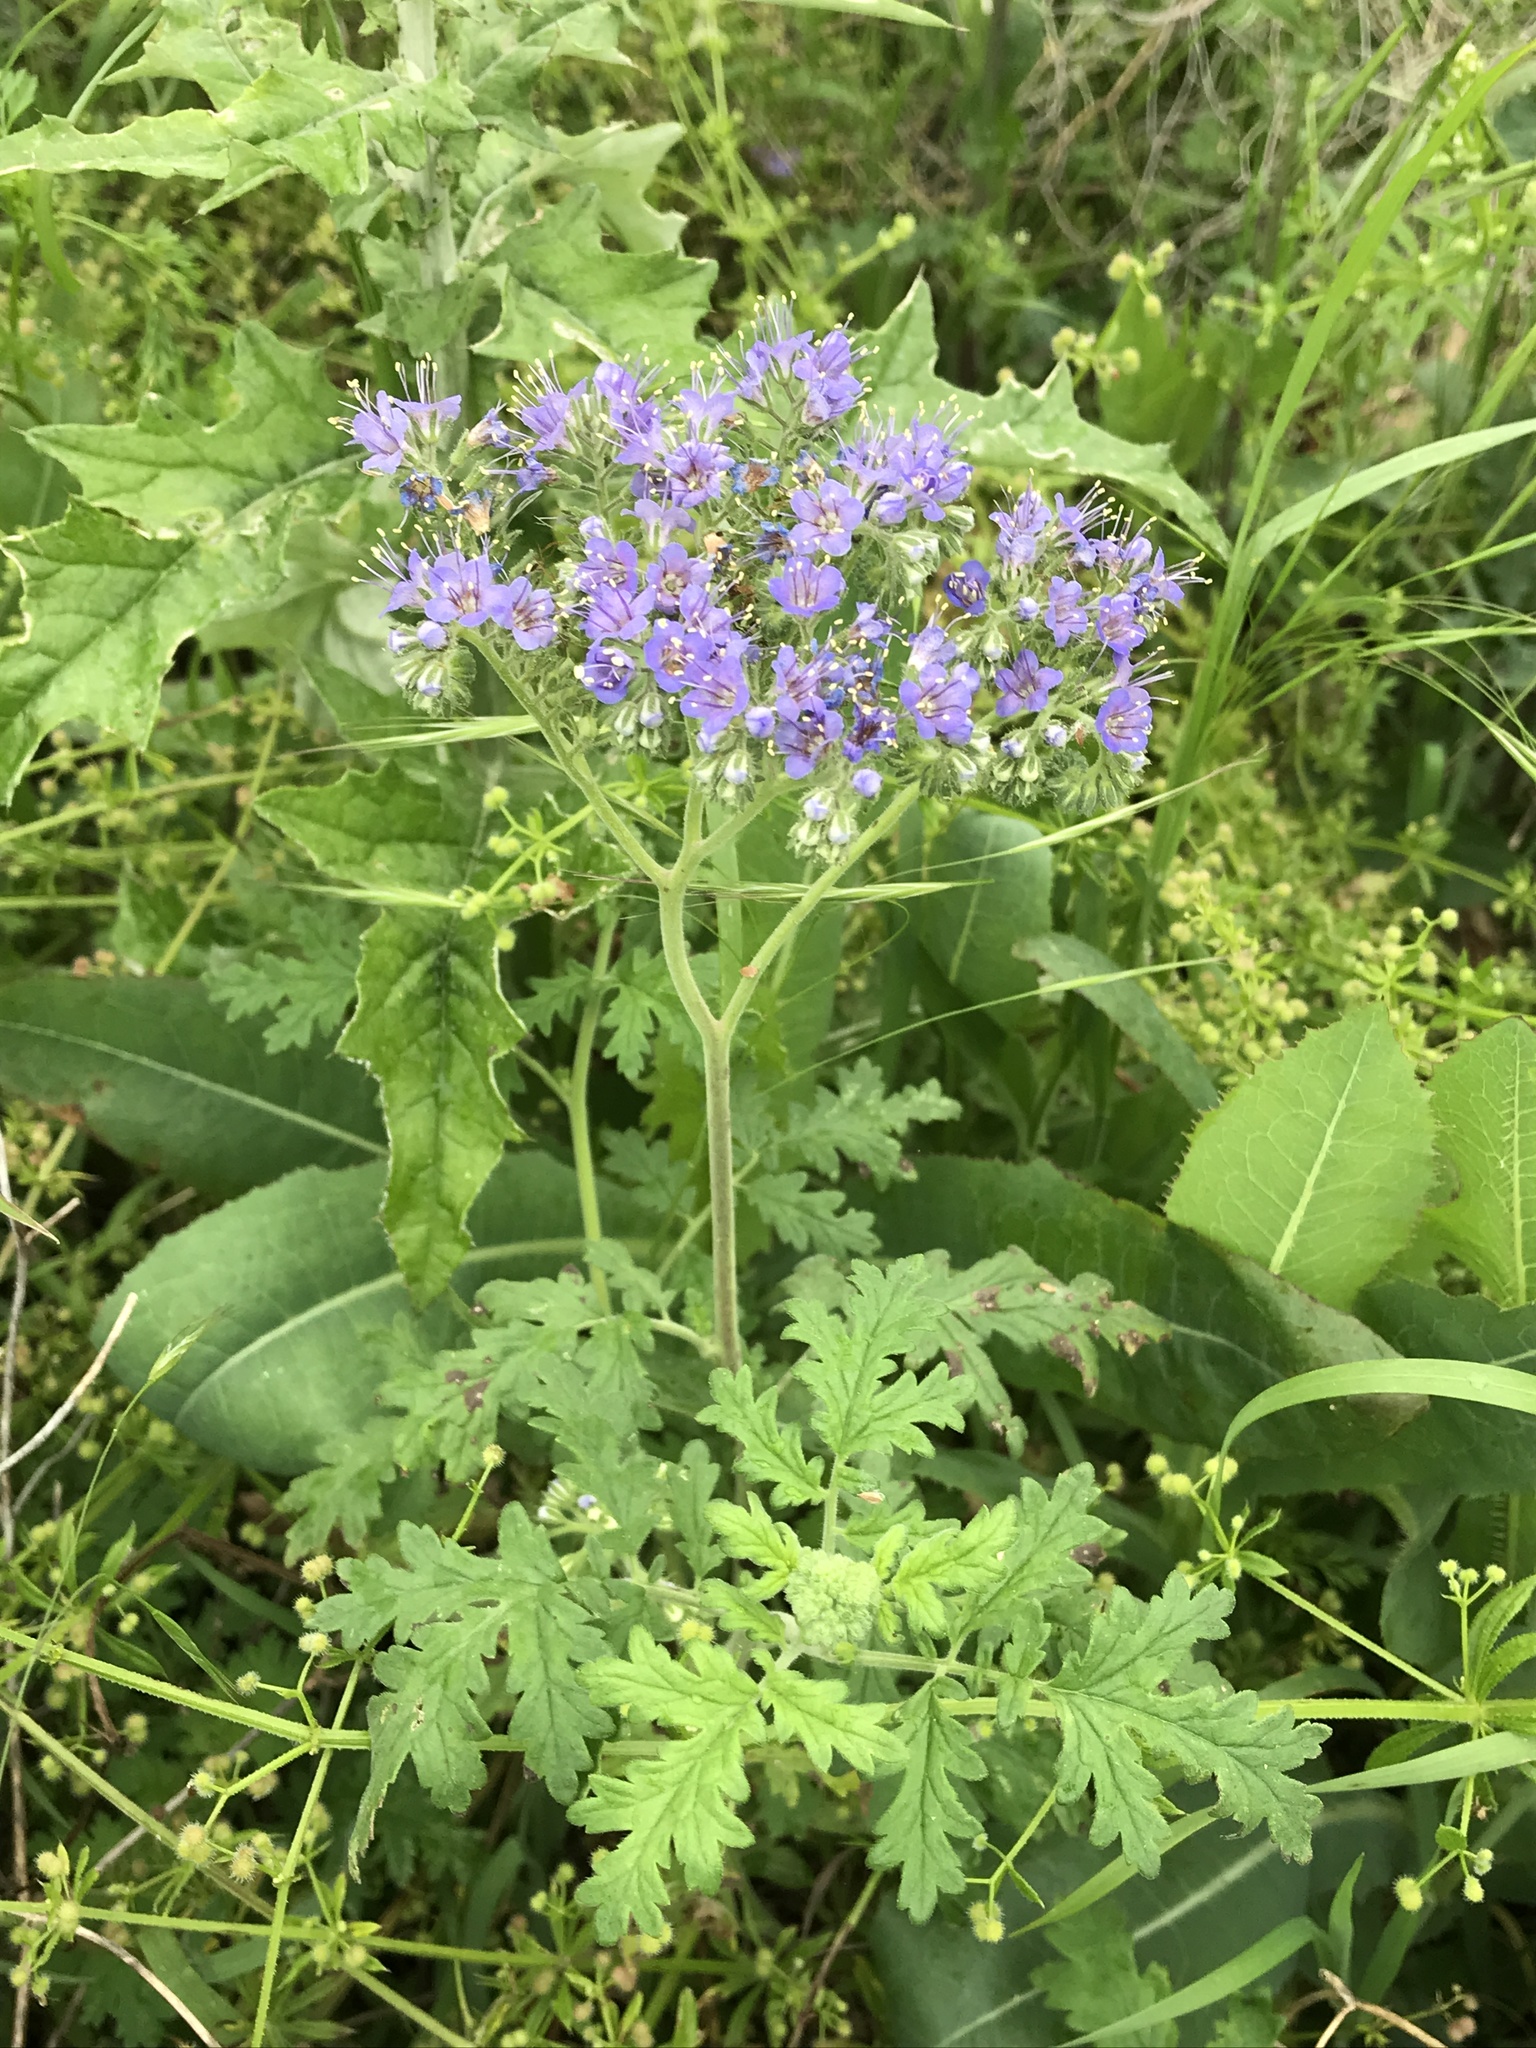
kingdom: Plantae
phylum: Tracheophyta
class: Magnoliopsida
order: Boraginales
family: Hydrophyllaceae
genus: Phacelia
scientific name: Phacelia congesta
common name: Blue curls
